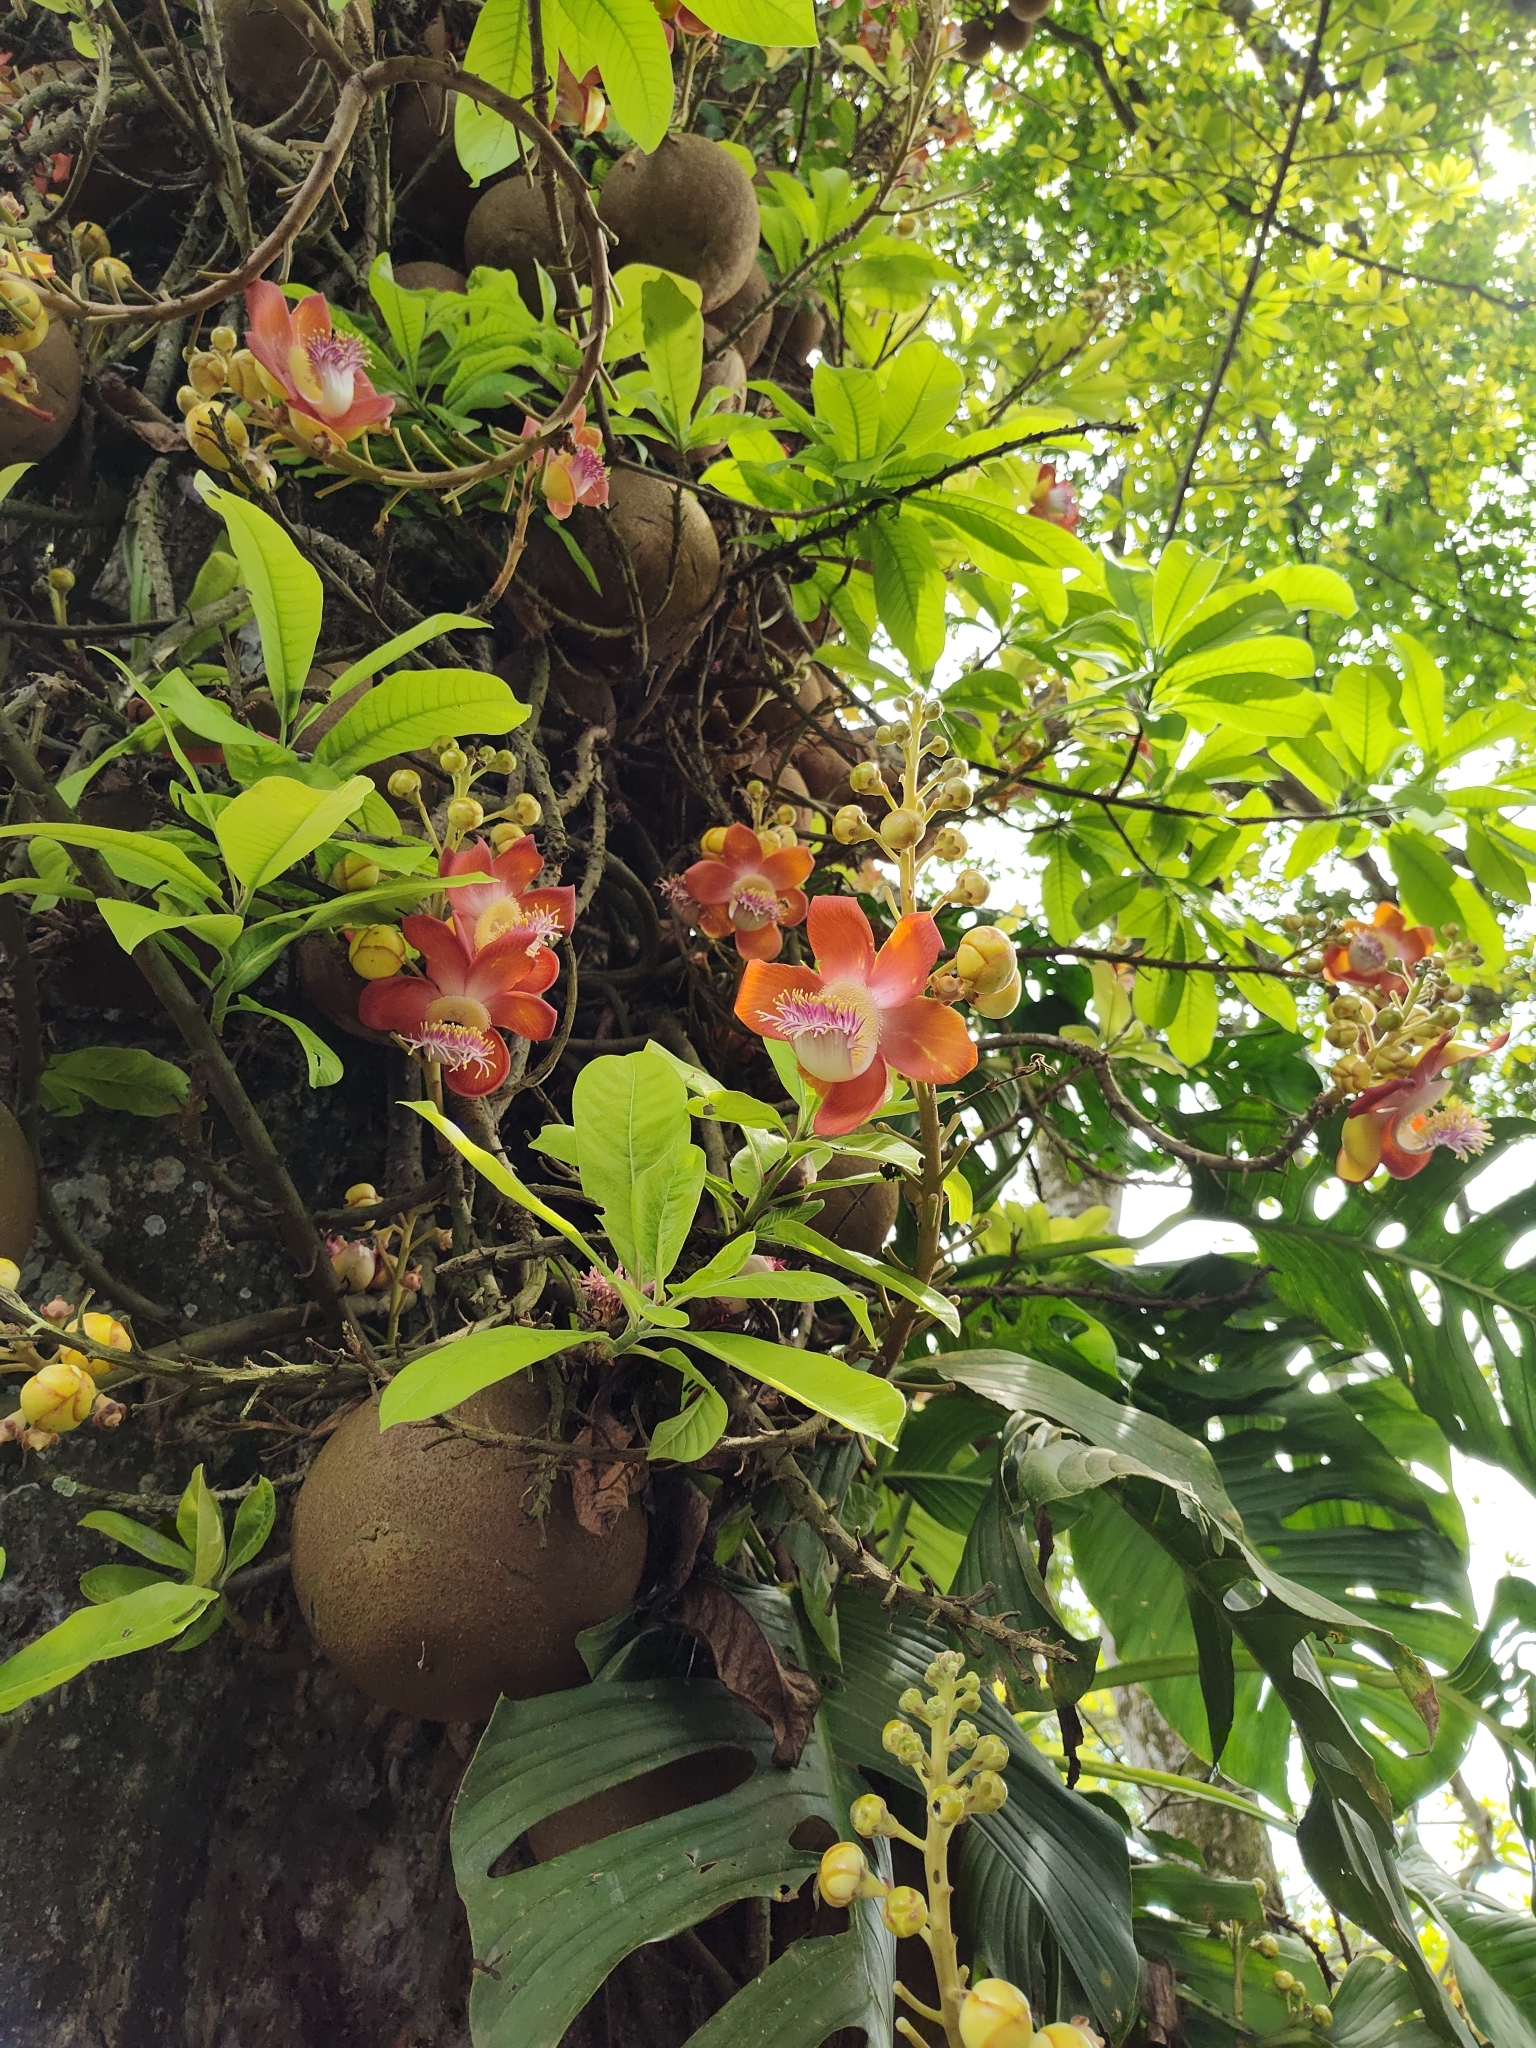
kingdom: Plantae
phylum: Tracheophyta
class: Magnoliopsida
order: Ericales
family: Lecythidaceae
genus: Couroupita
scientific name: Couroupita guianensis
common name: Cannonball tree
